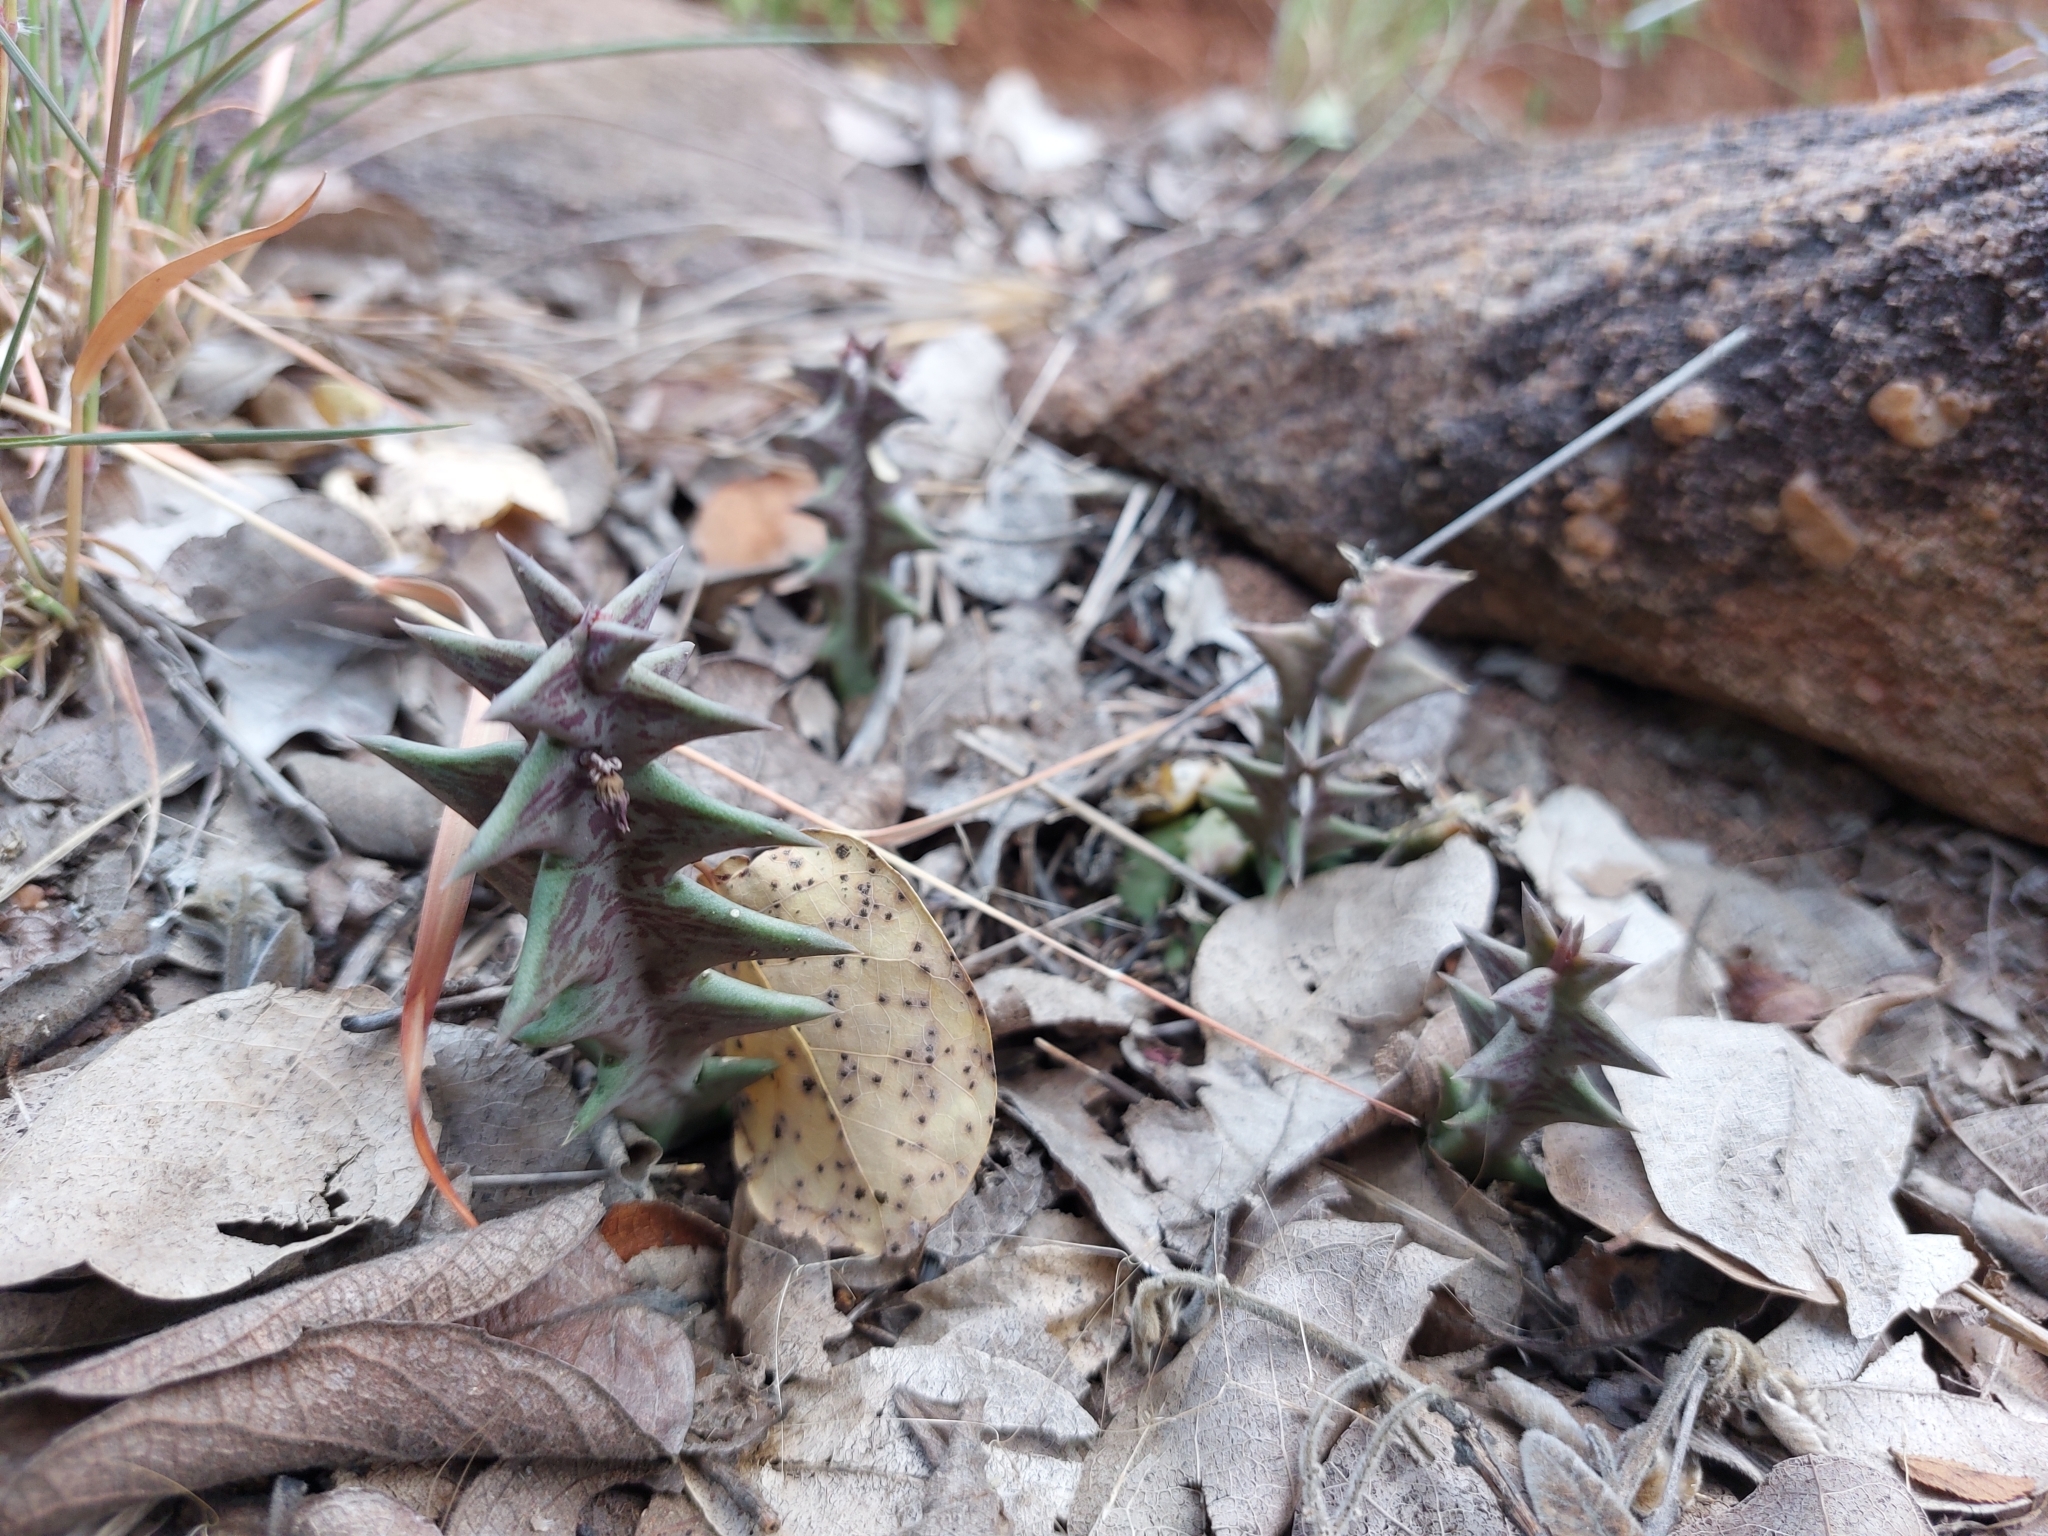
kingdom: Plantae
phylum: Tracheophyta
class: Magnoliopsida
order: Gentianales
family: Apocynaceae
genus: Ceropegia
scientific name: Ceropegia keithii
